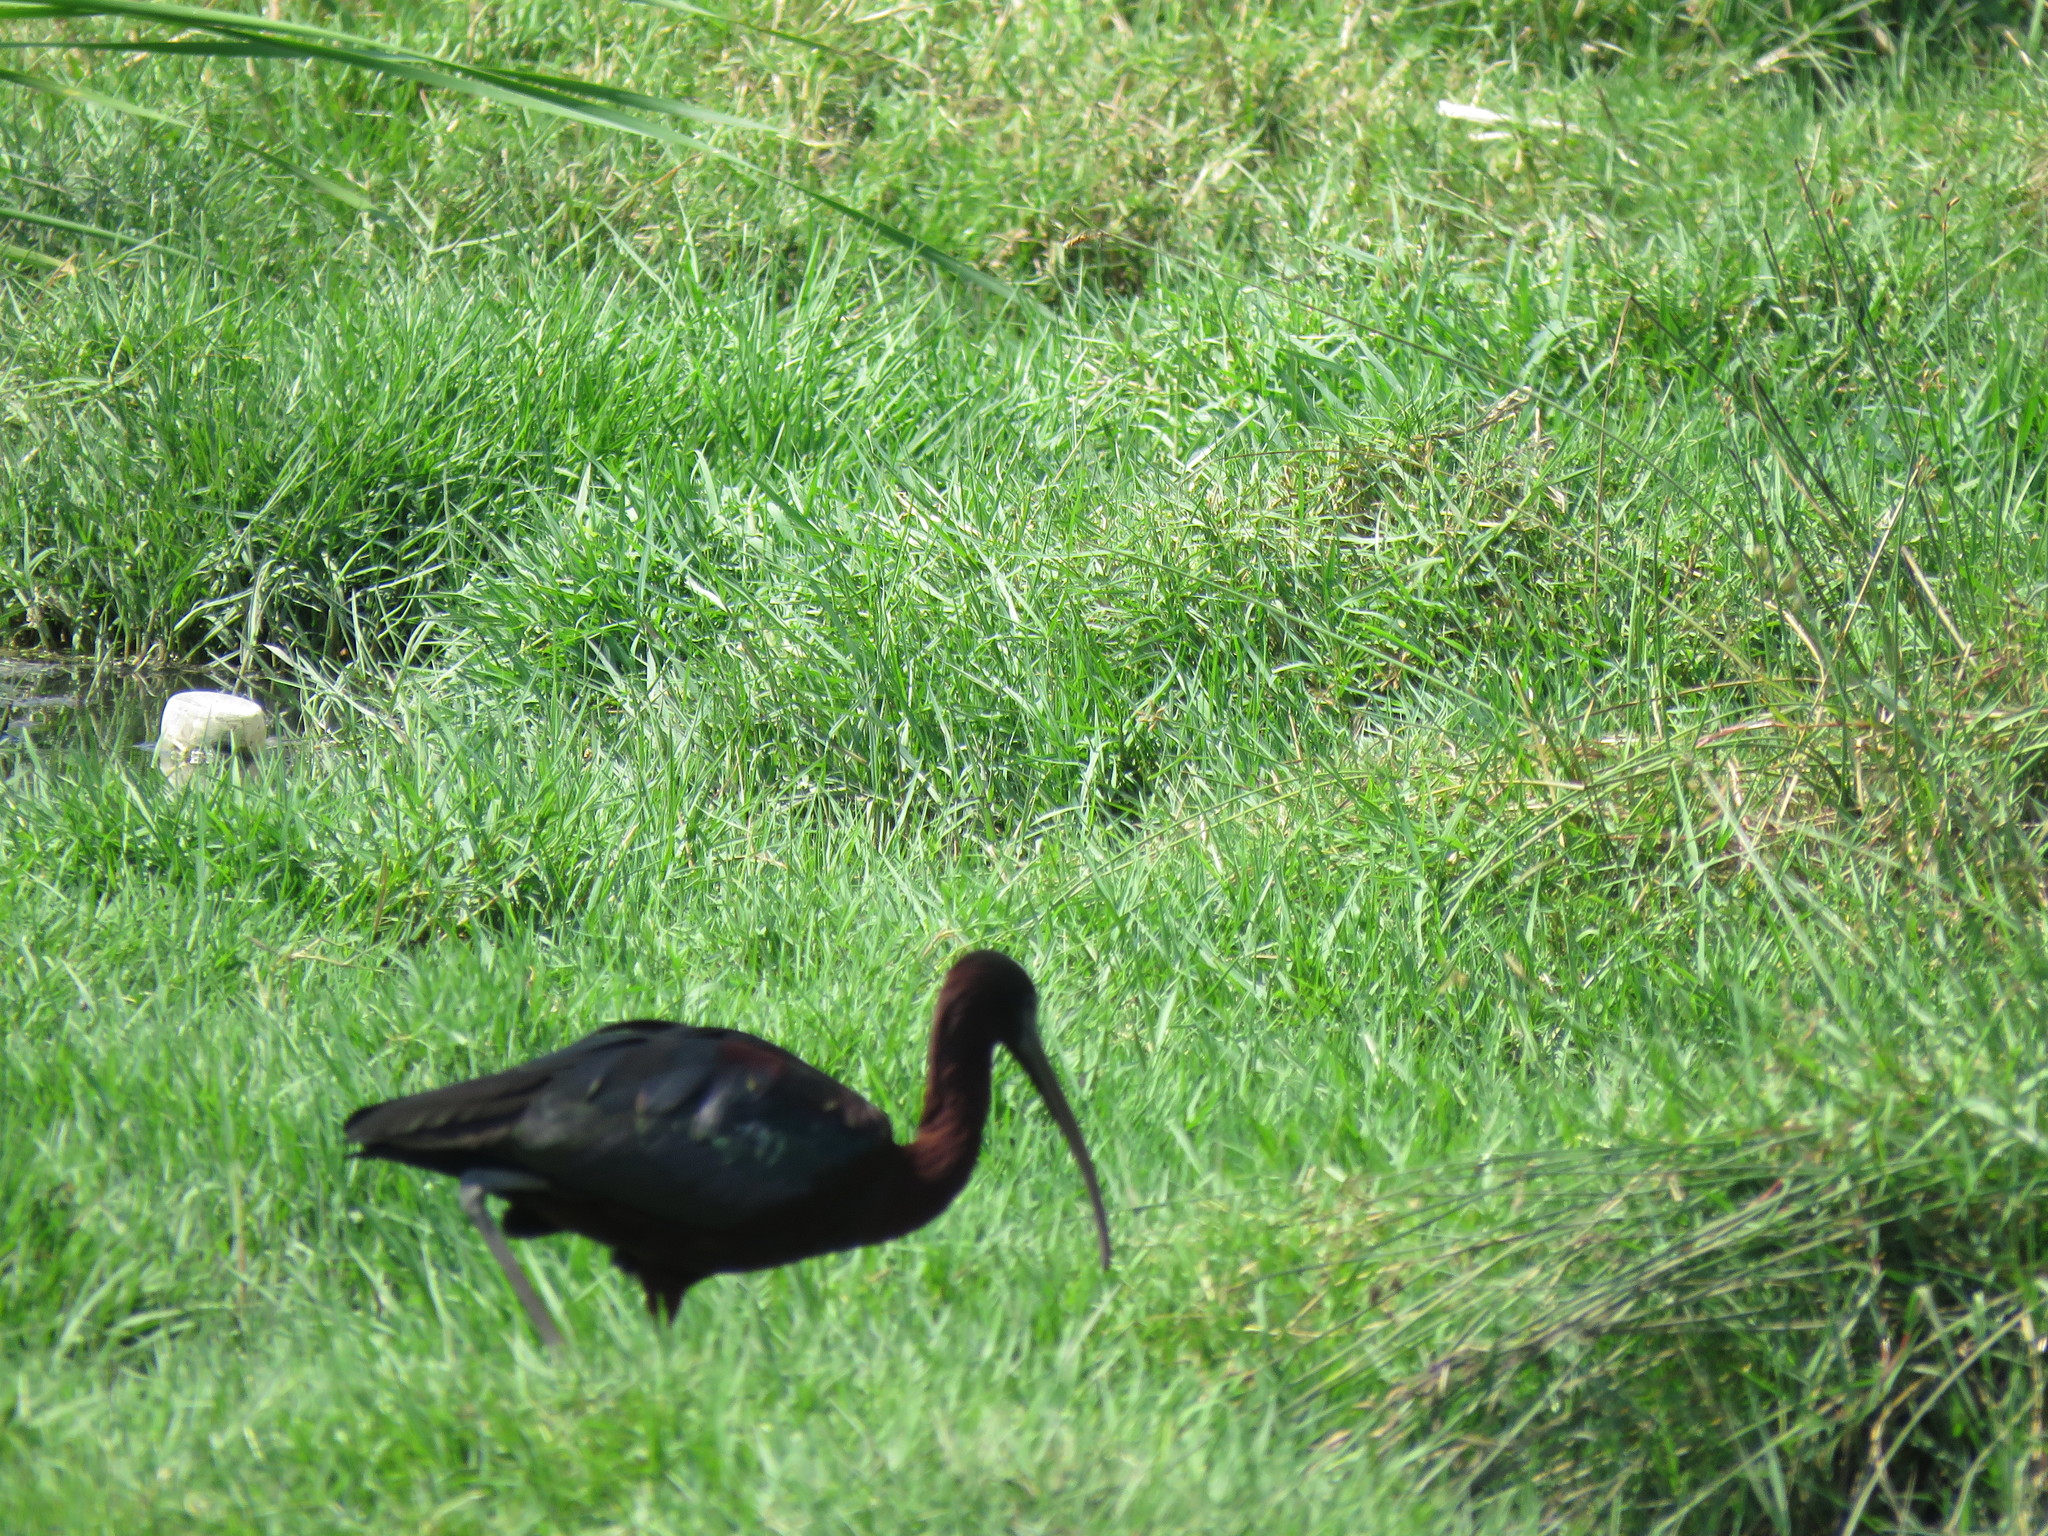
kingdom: Animalia
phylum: Chordata
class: Aves
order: Pelecaniformes
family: Threskiornithidae
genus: Plegadis
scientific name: Plegadis falcinellus
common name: Glossy ibis
